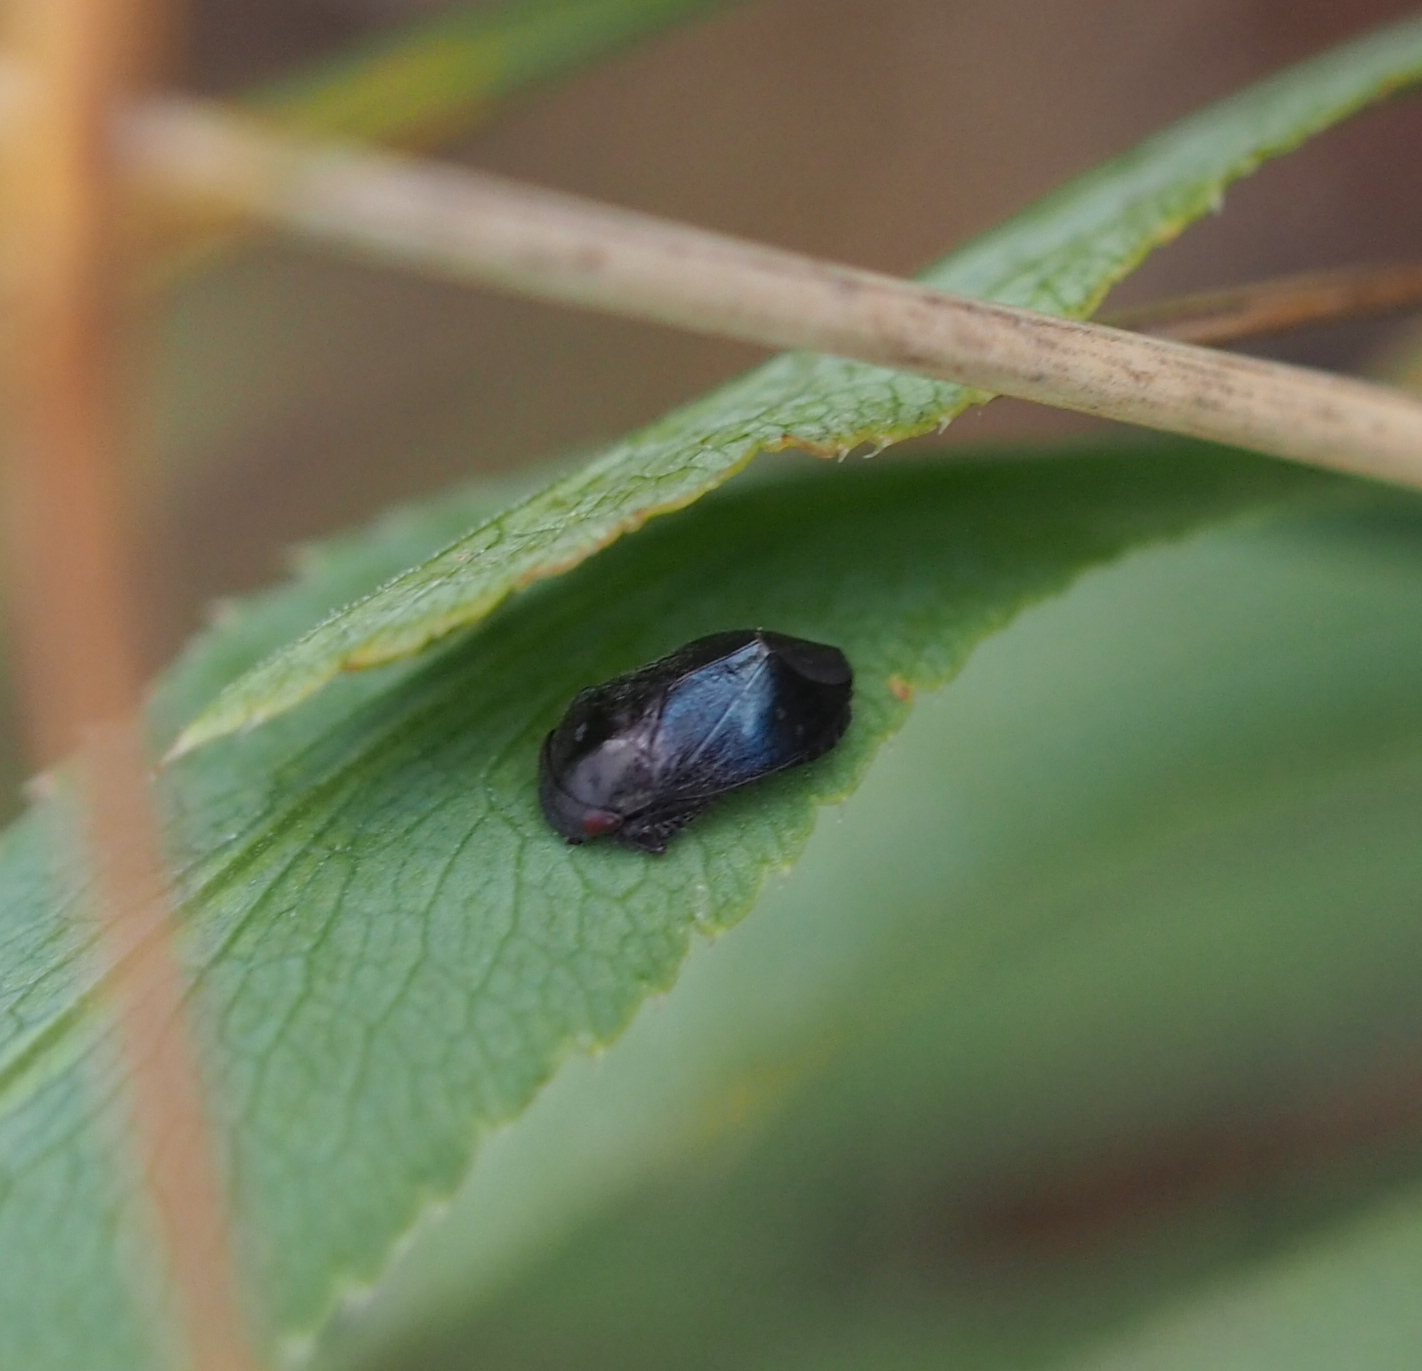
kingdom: Animalia
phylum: Arthropoda
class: Insecta
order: Hemiptera
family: Cicadellidae
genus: Penthimia
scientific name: Penthimia nigra
